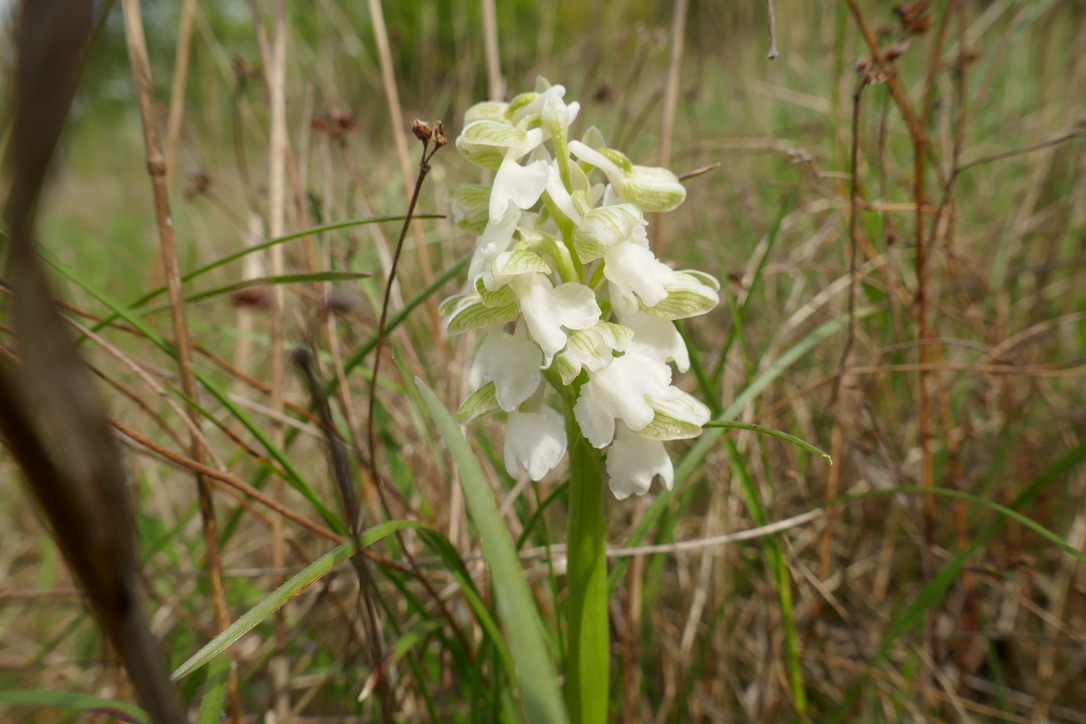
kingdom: Plantae
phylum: Tracheophyta
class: Liliopsida
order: Asparagales
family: Orchidaceae
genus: Anacamptis
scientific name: Anacamptis morio
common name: Green-winged orchid
